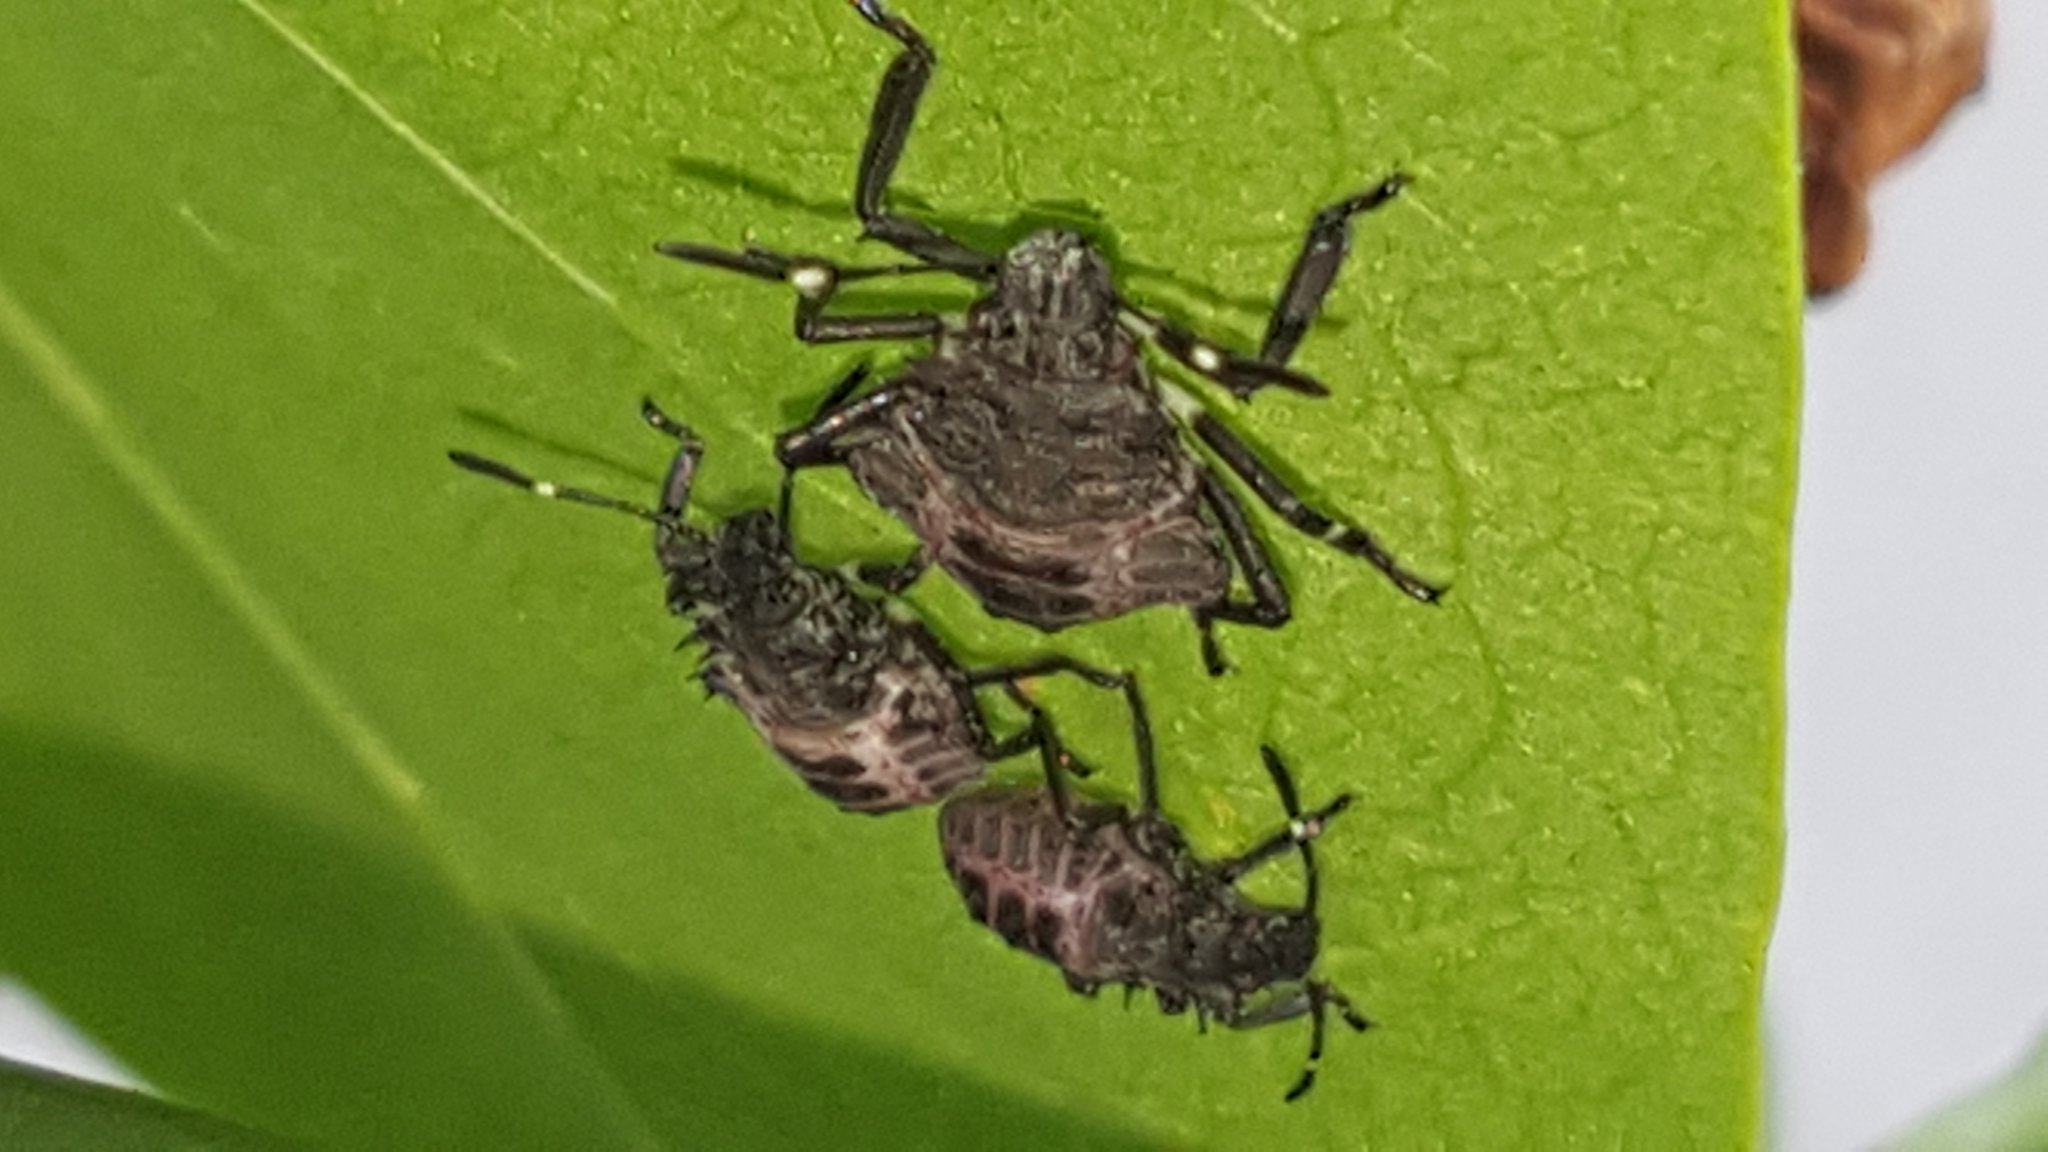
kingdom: Animalia
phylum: Arthropoda
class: Insecta
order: Hemiptera
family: Pentatomidae
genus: Halyomorpha
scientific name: Halyomorpha halys
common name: Brown marmorated stink bug
